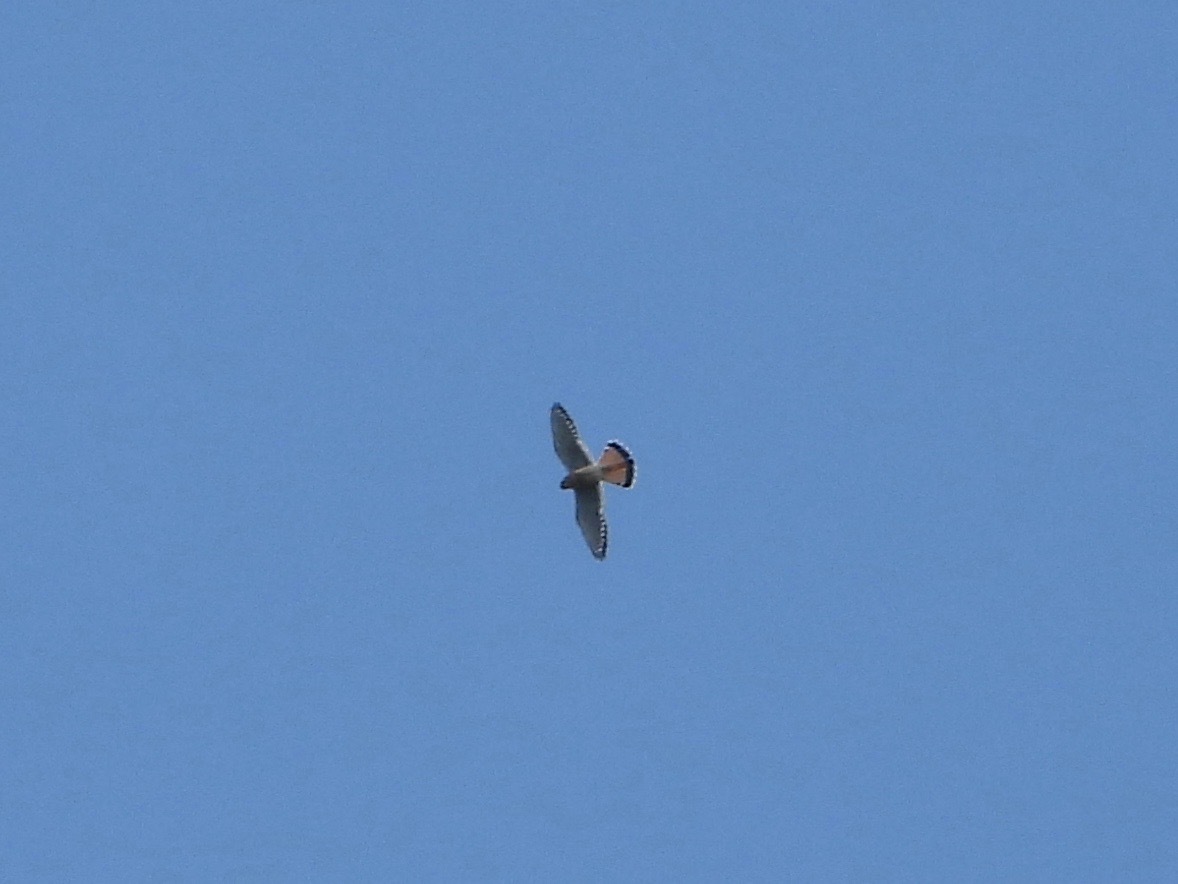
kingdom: Animalia
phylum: Chordata
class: Aves
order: Falconiformes
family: Falconidae
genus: Falco
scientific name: Falco sparverius
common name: American kestrel
